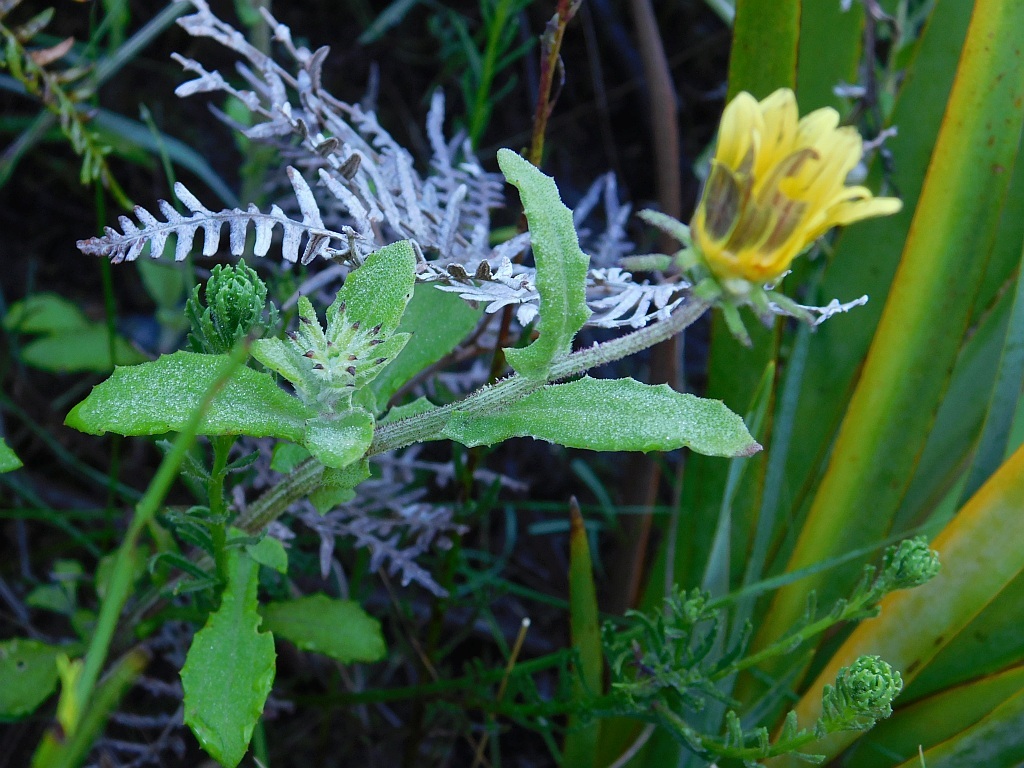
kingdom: Plantae
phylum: Tracheophyta
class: Magnoliopsida
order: Asterales
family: Asteraceae
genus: Arctotis
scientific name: Arctotis scabra
